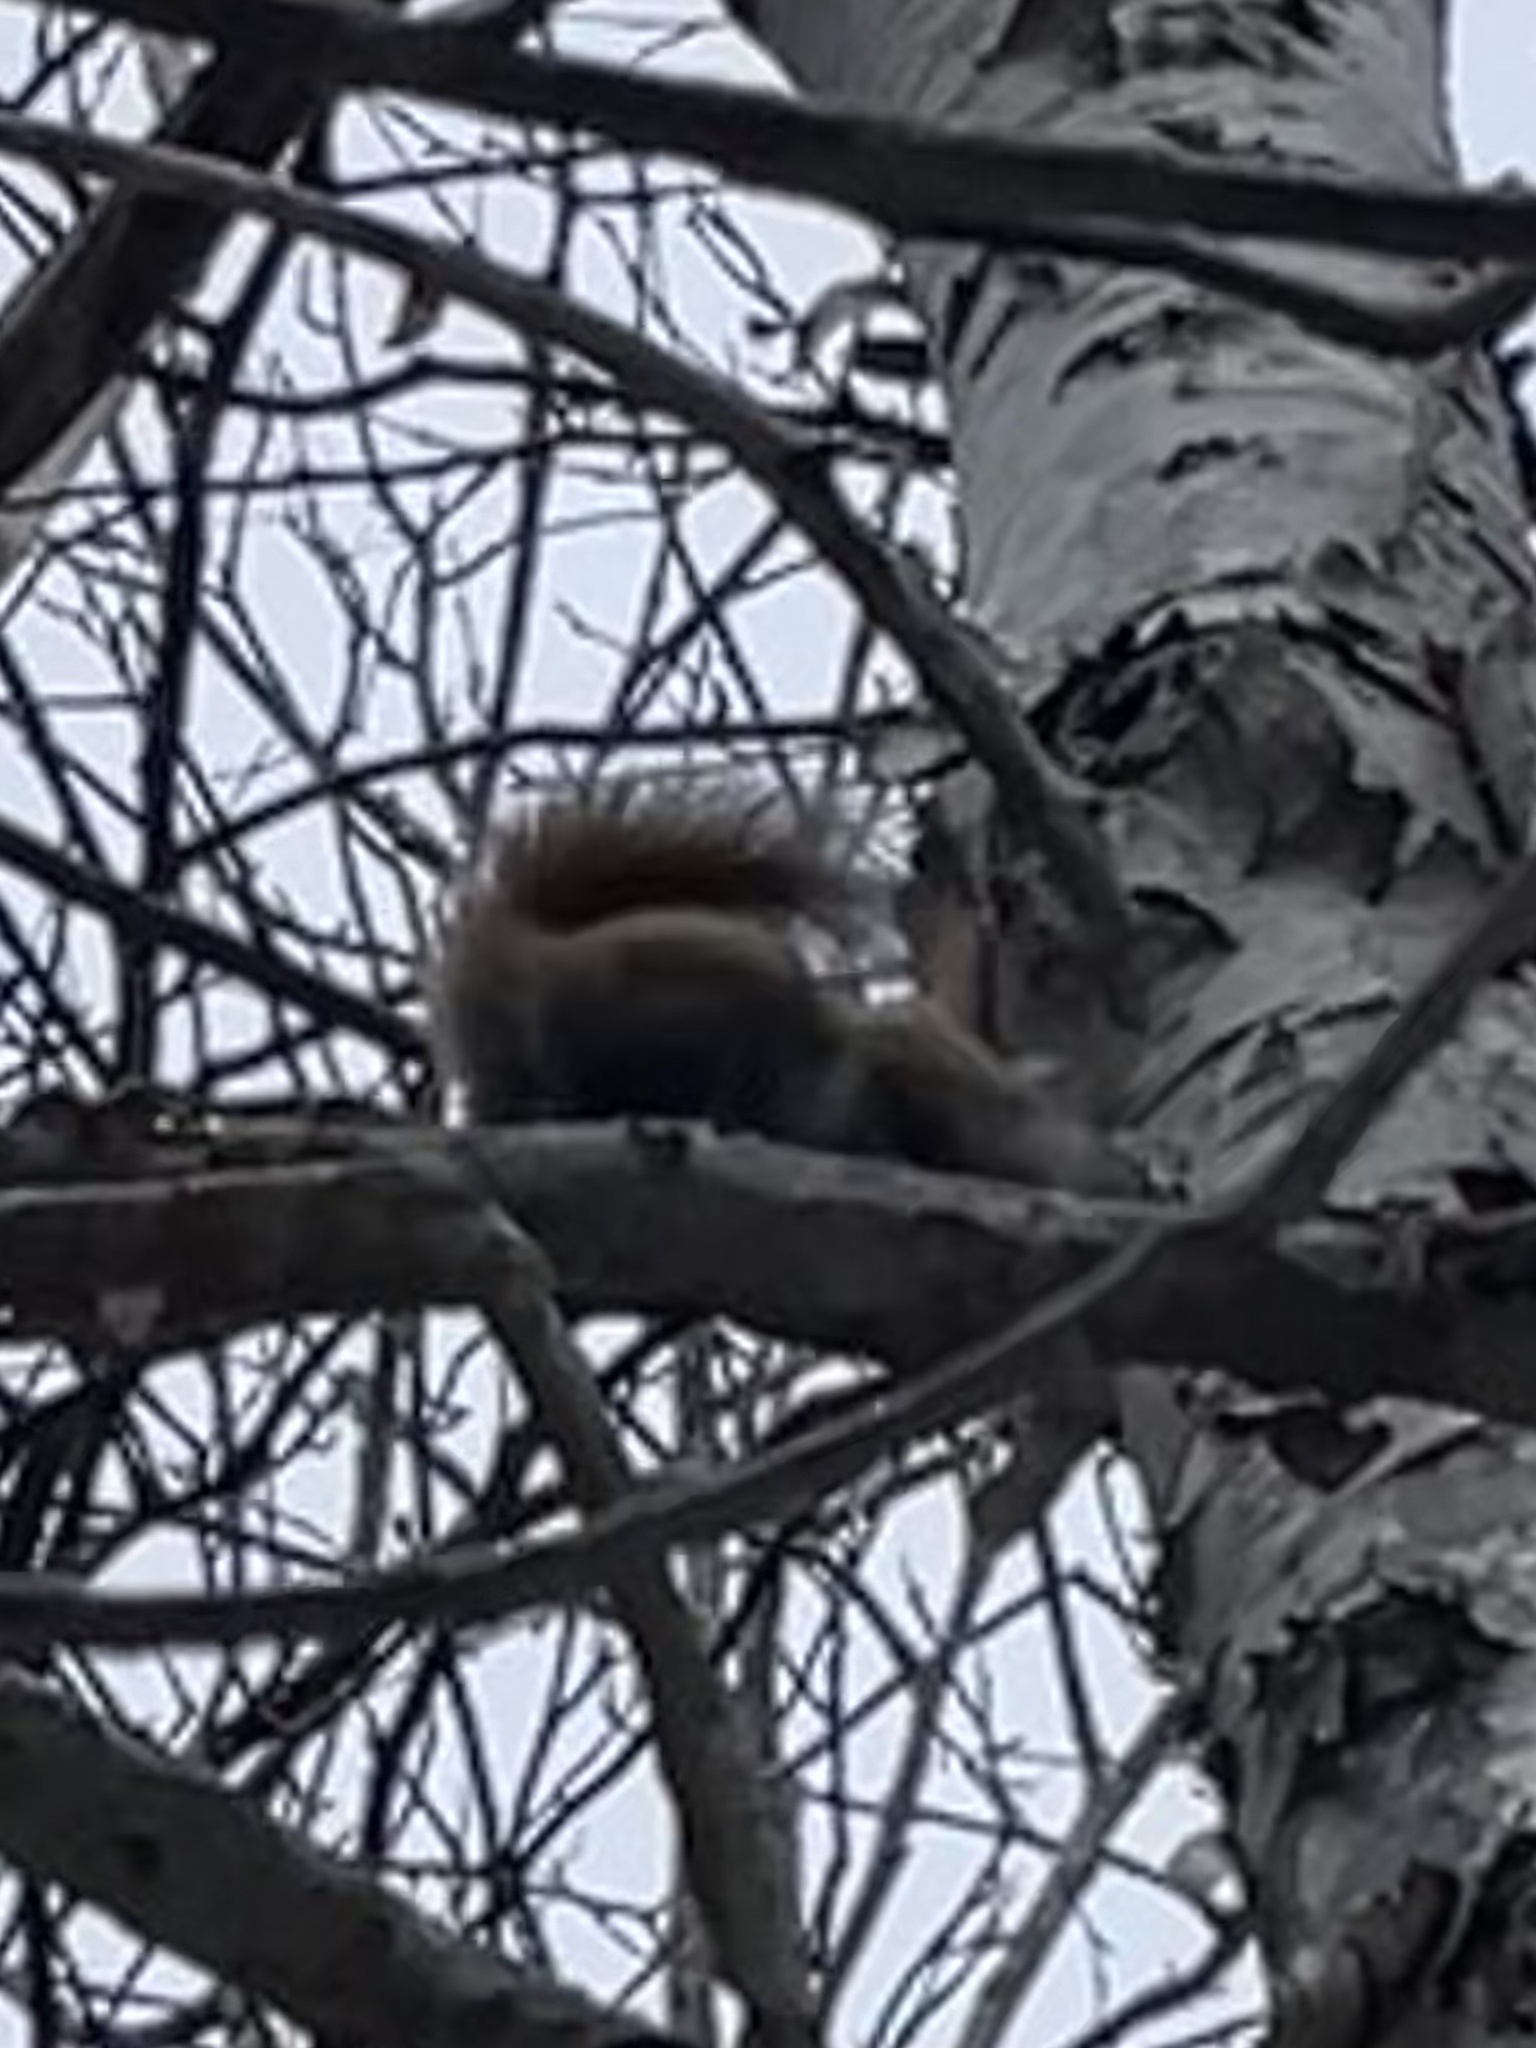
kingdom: Animalia
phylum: Chordata
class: Mammalia
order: Rodentia
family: Sciuridae
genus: Tamiasciurus
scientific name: Tamiasciurus hudsonicus
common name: Red squirrel
